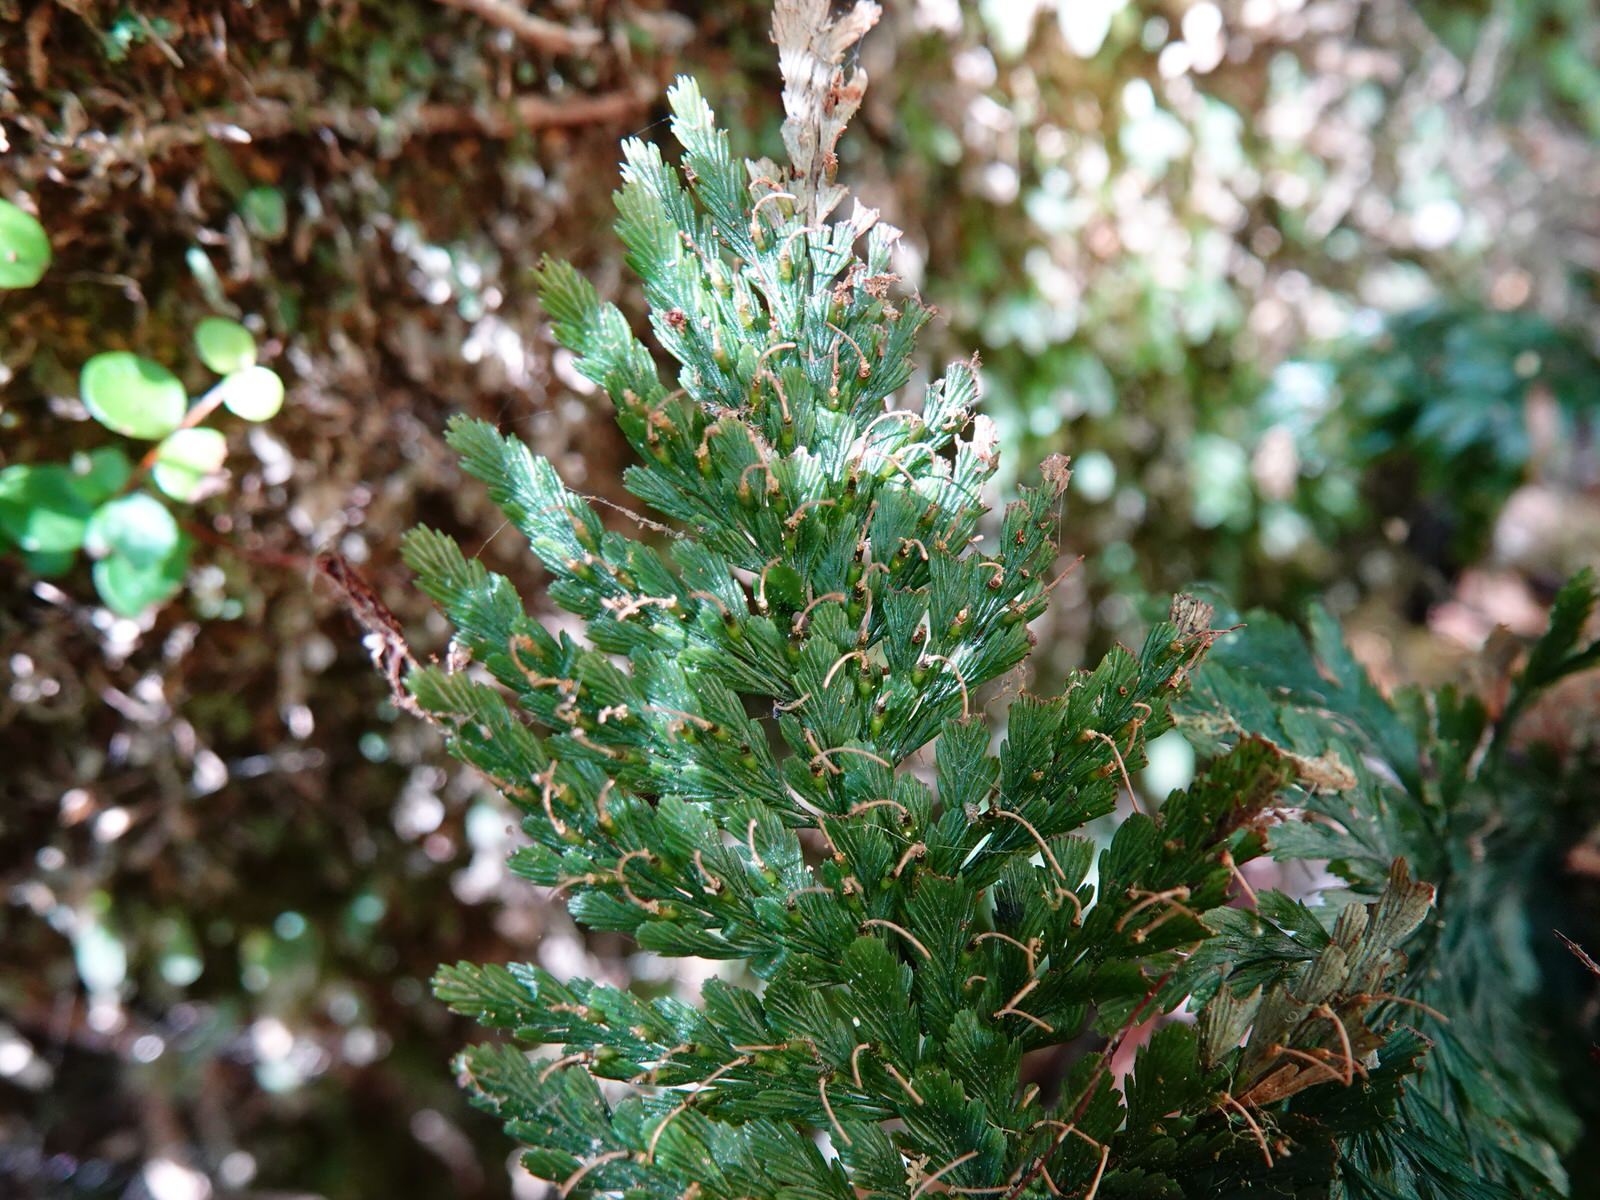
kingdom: Plantae
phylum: Tracheophyta
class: Polypodiopsida
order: Hymenophyllales
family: Hymenophyllaceae
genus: Abrodictyum
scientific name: Abrodictyum elongatum
